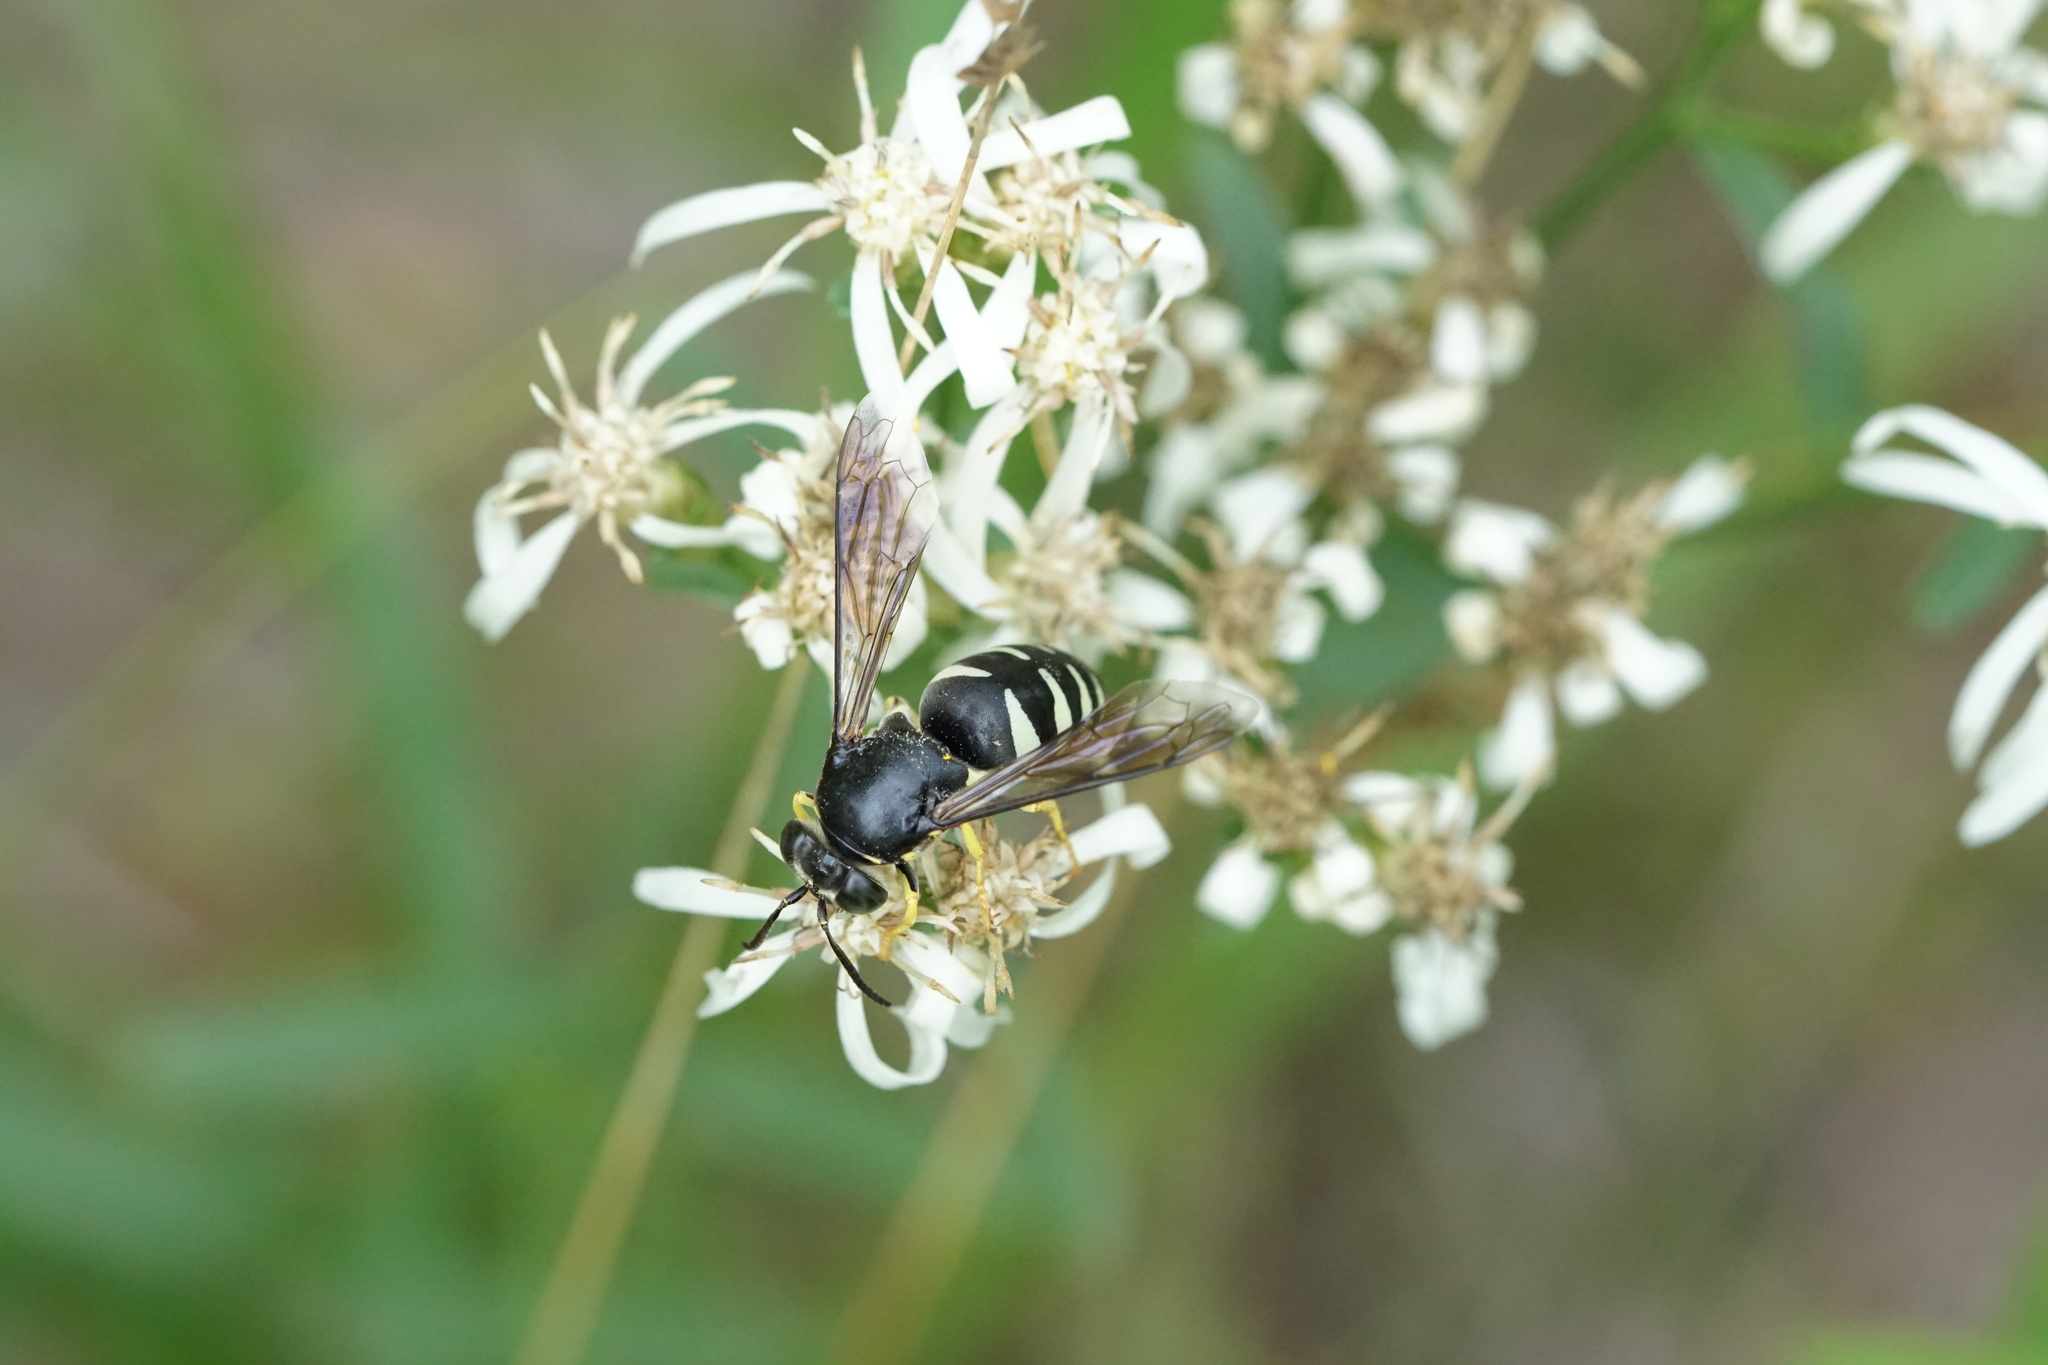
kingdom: Animalia
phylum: Arthropoda
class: Insecta
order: Hymenoptera
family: Crabronidae
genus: Bicyrtes
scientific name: Bicyrtes quadrifasciatus
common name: Four-banded stink bug hunter wasp
